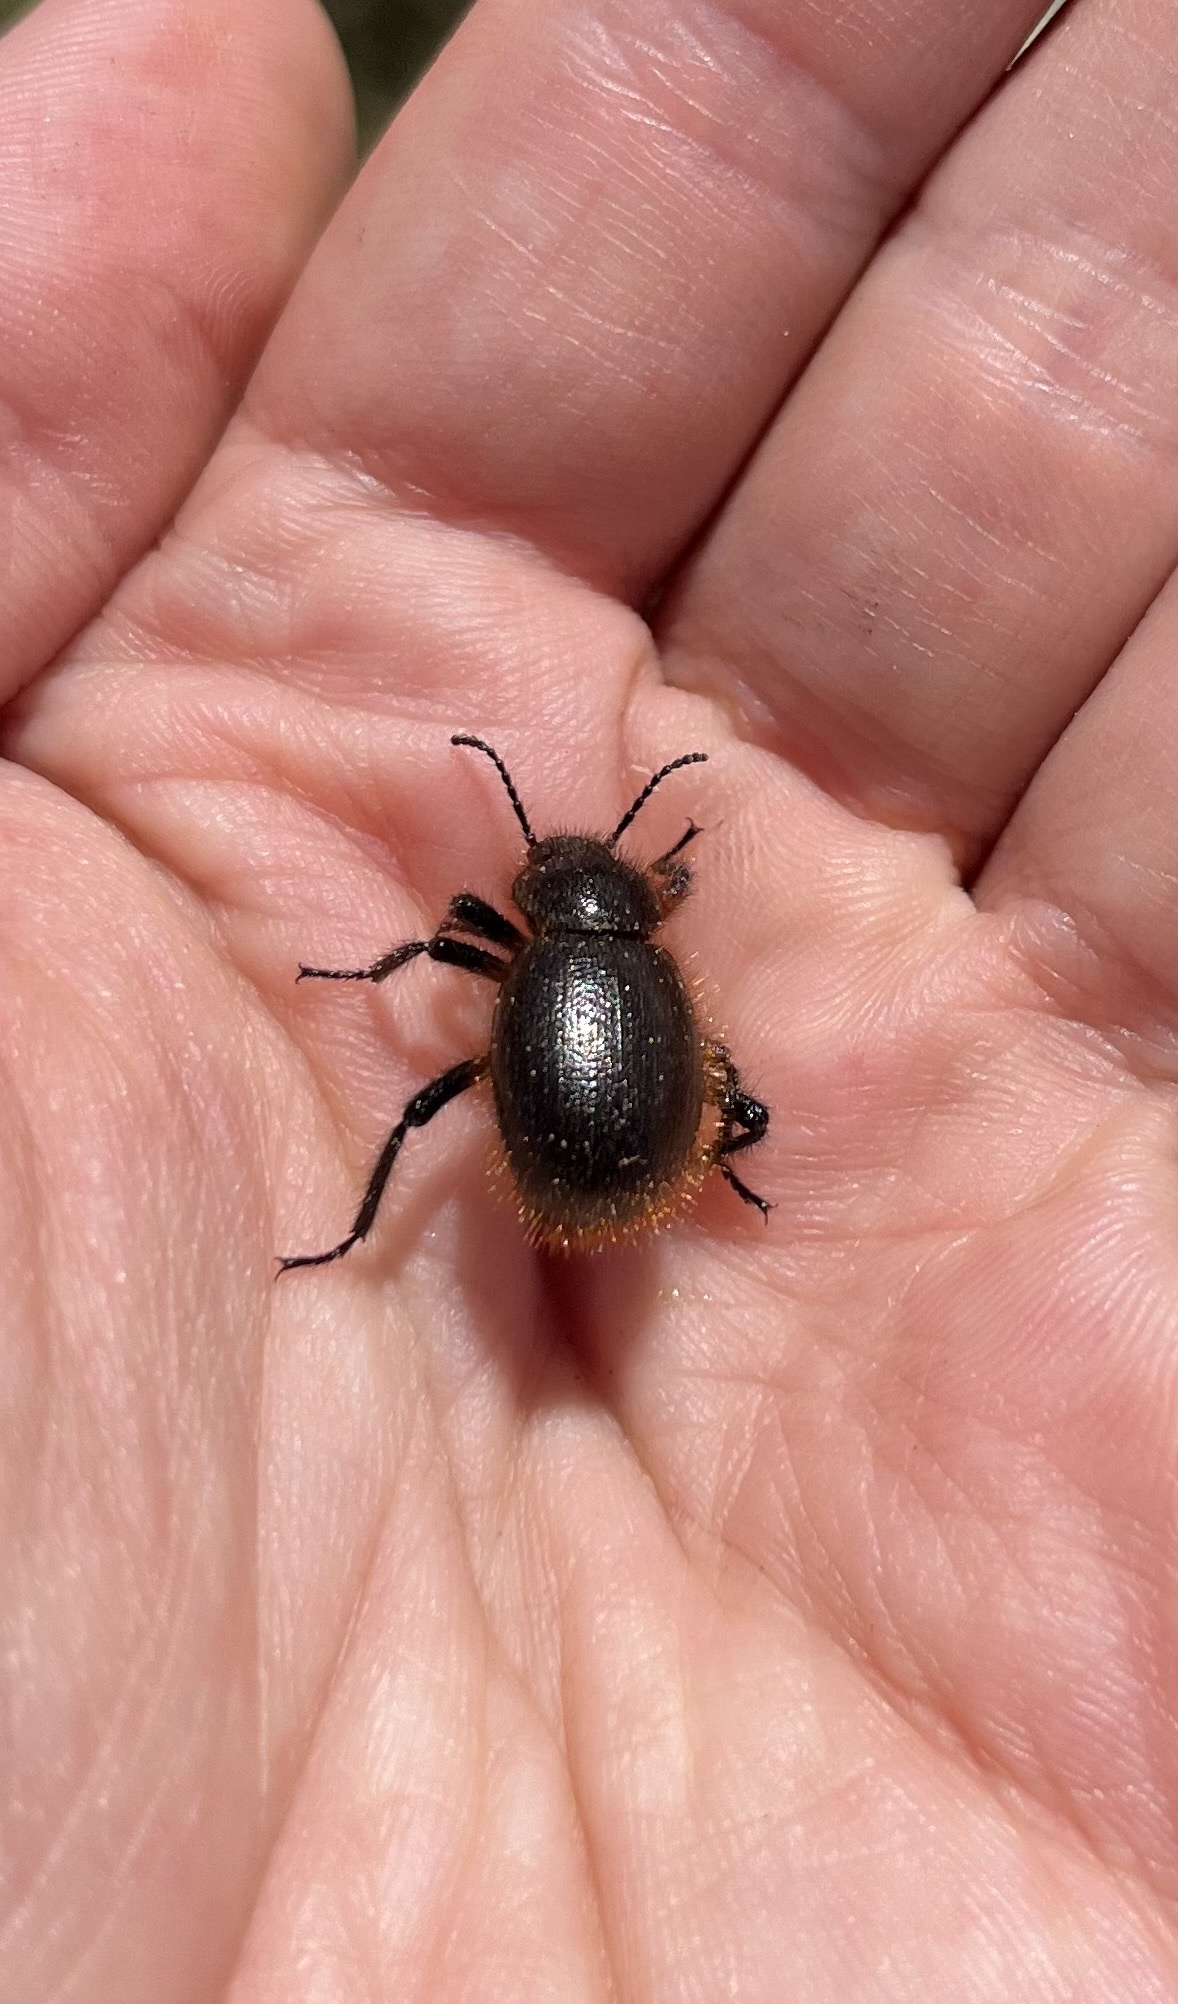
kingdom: Animalia
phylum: Arthropoda
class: Insecta
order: Coleoptera
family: Tenebrionidae
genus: Eleodes
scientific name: Eleodes osculans
